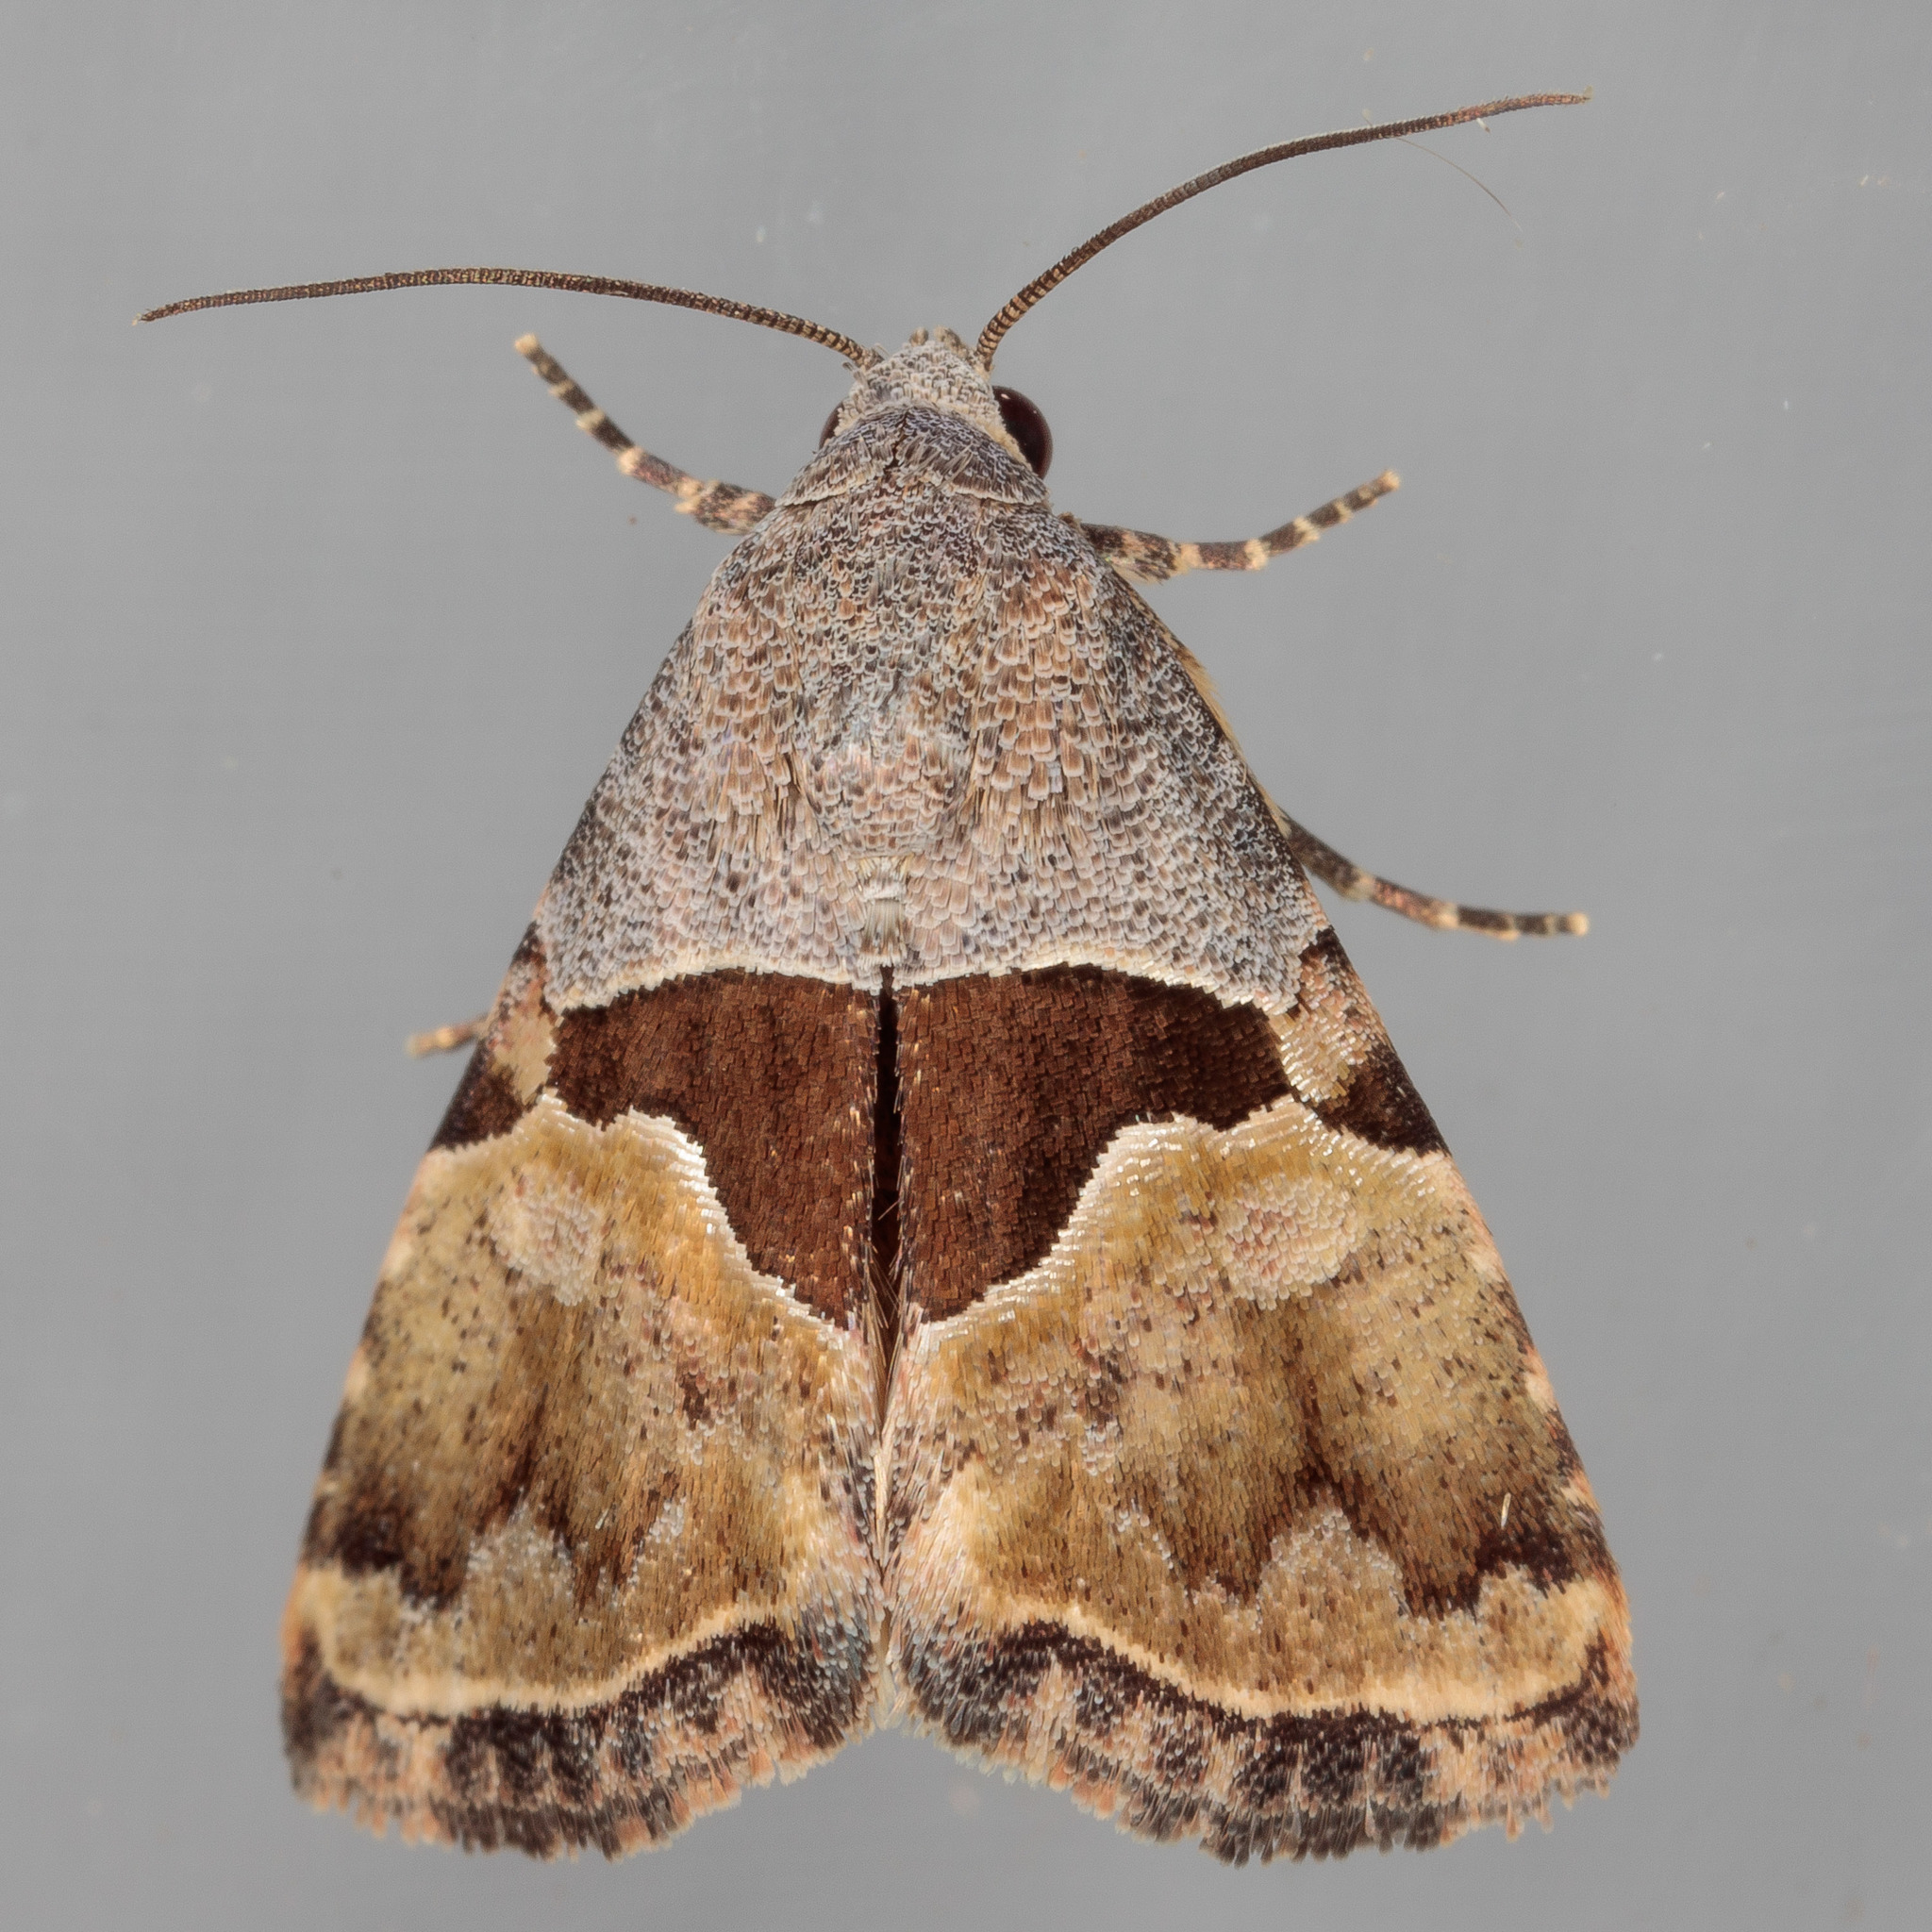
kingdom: Animalia
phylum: Arthropoda
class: Insecta
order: Lepidoptera
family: Noctuidae
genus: Cobubatha
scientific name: Cobubatha lixiva
